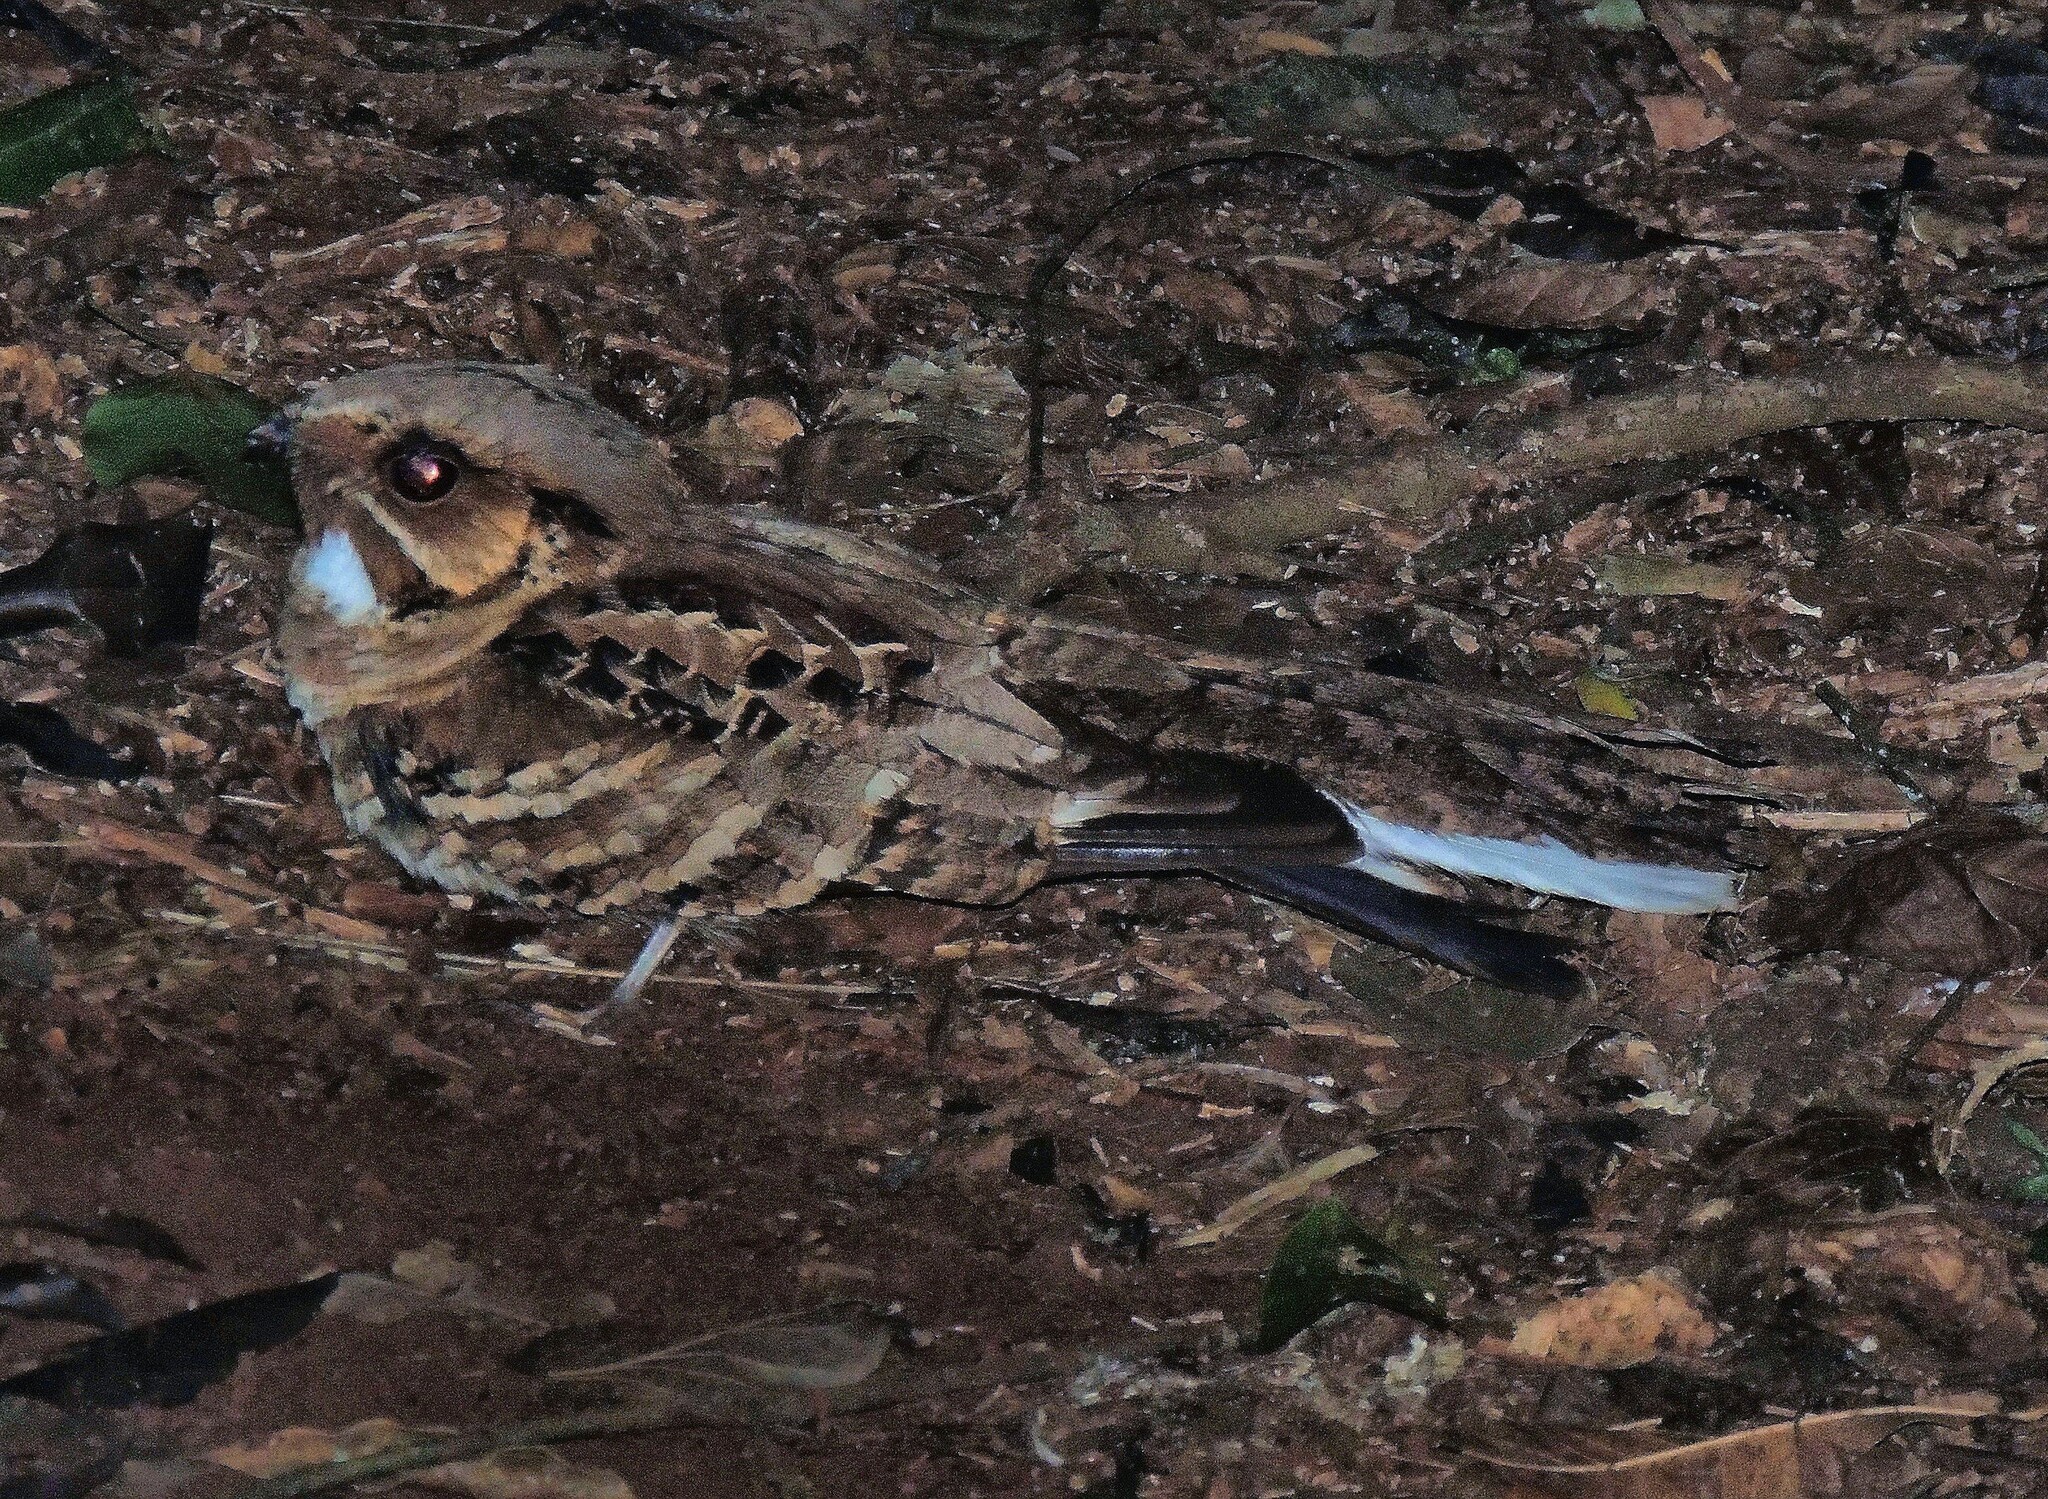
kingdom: Animalia
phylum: Chordata
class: Aves
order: Caprimulgiformes
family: Caprimulgidae
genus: Nyctidromus
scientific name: Nyctidromus albicollis
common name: Pauraque
